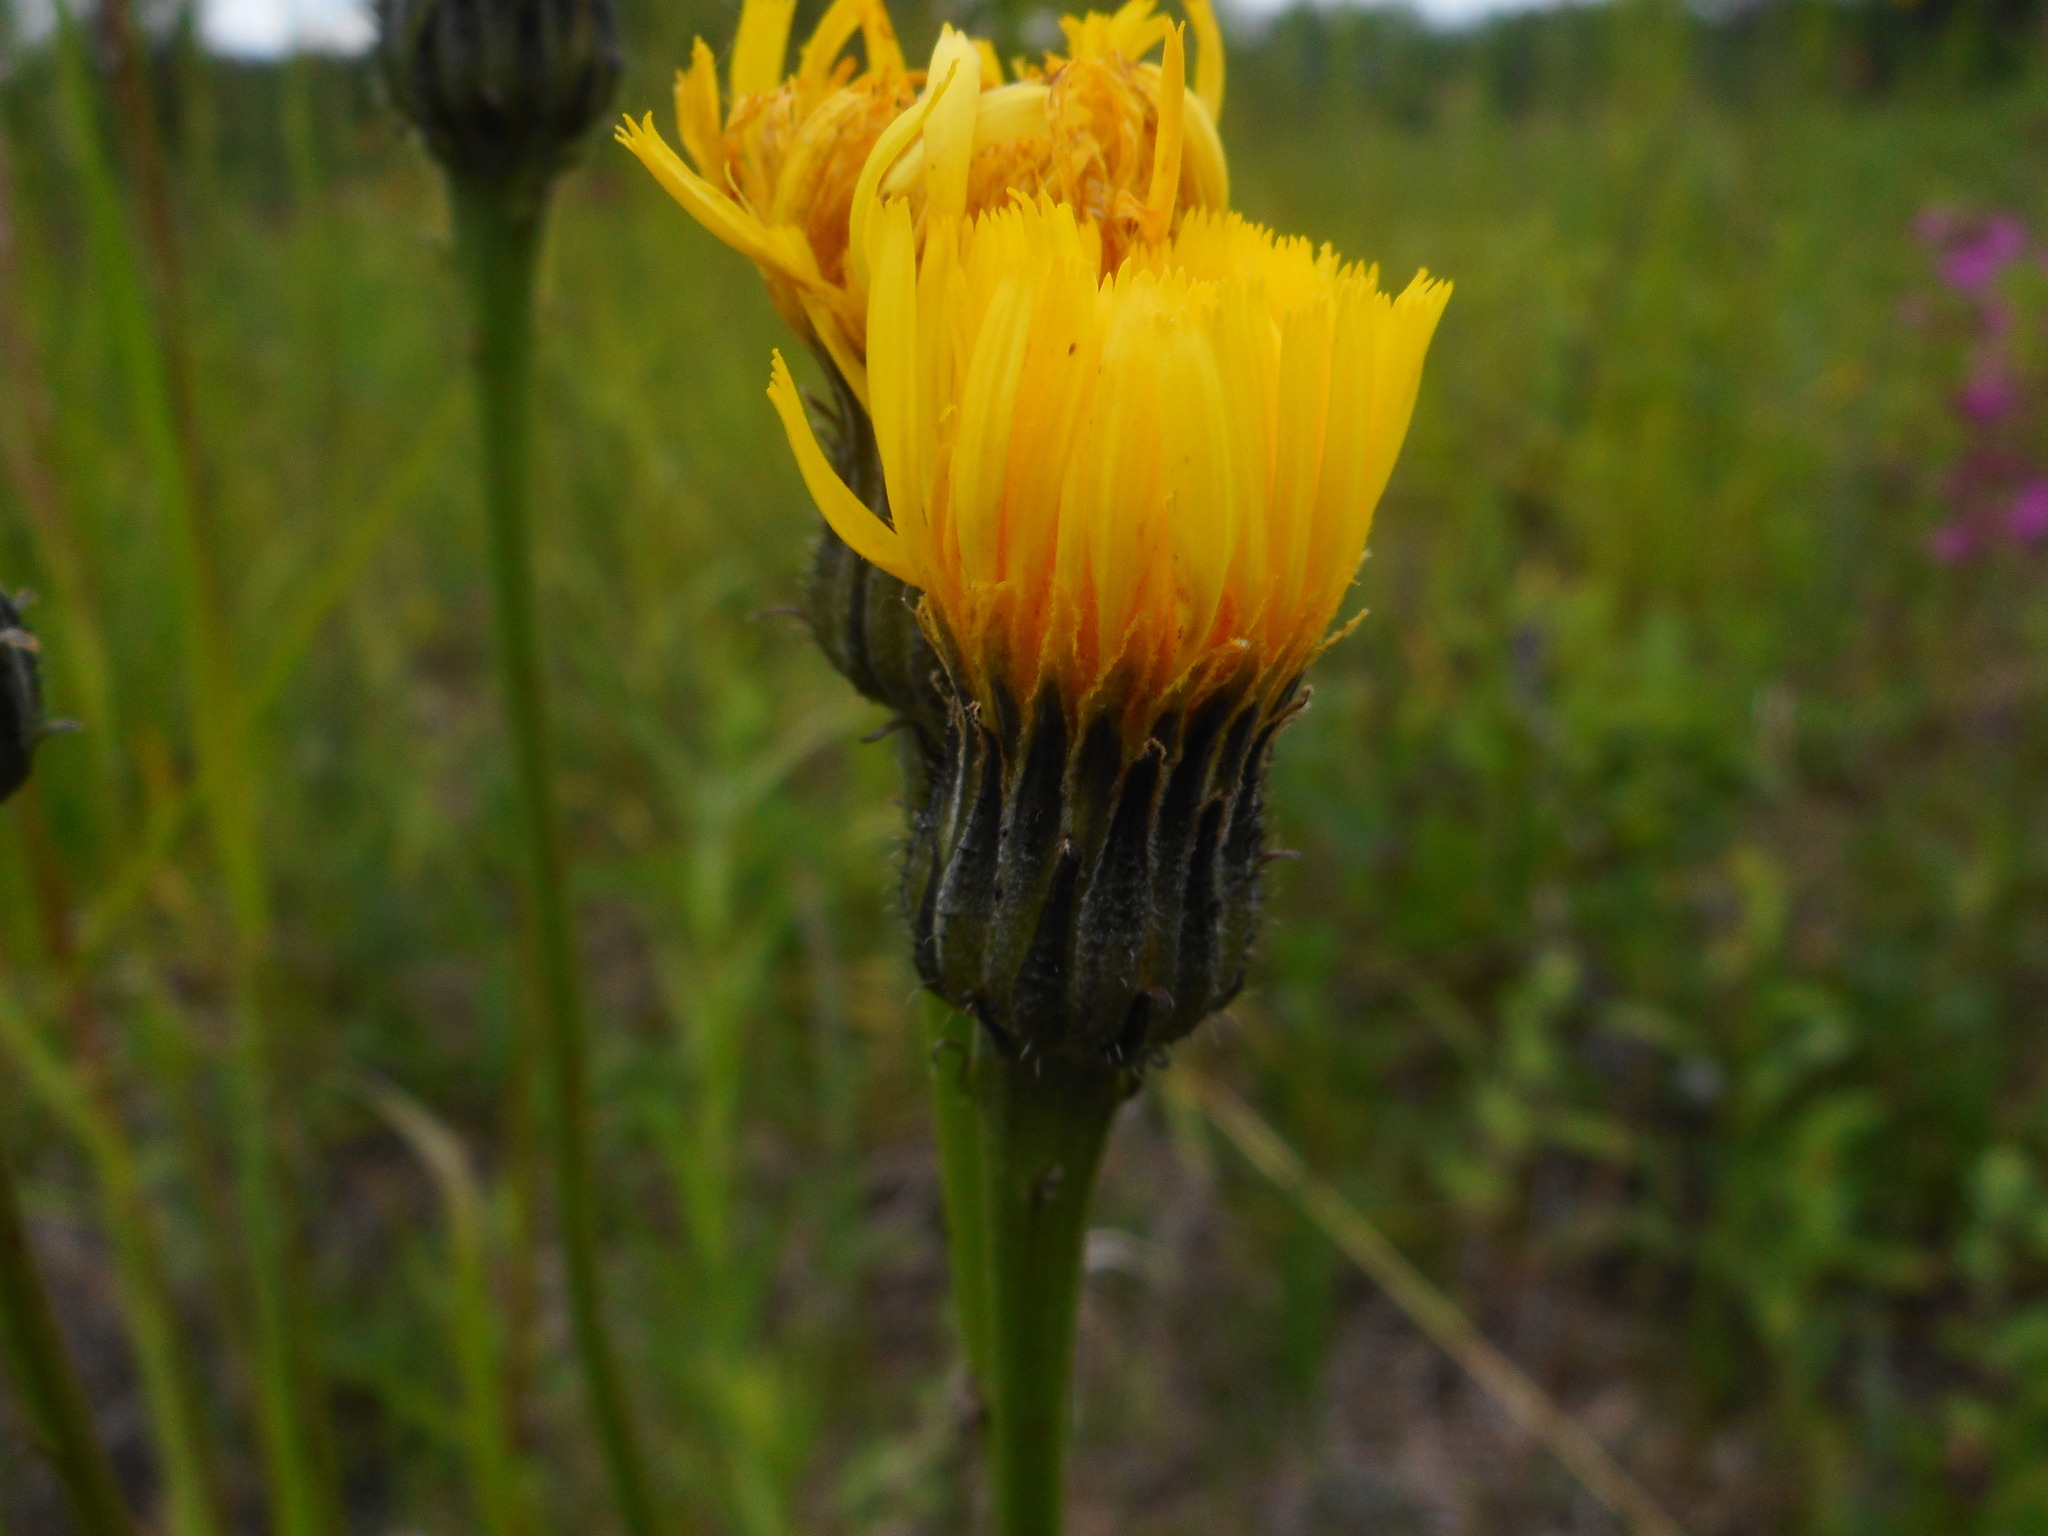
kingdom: Plantae
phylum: Tracheophyta
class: Magnoliopsida
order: Asterales
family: Asteraceae
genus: Trommsdorffia
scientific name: Trommsdorffia maculata
